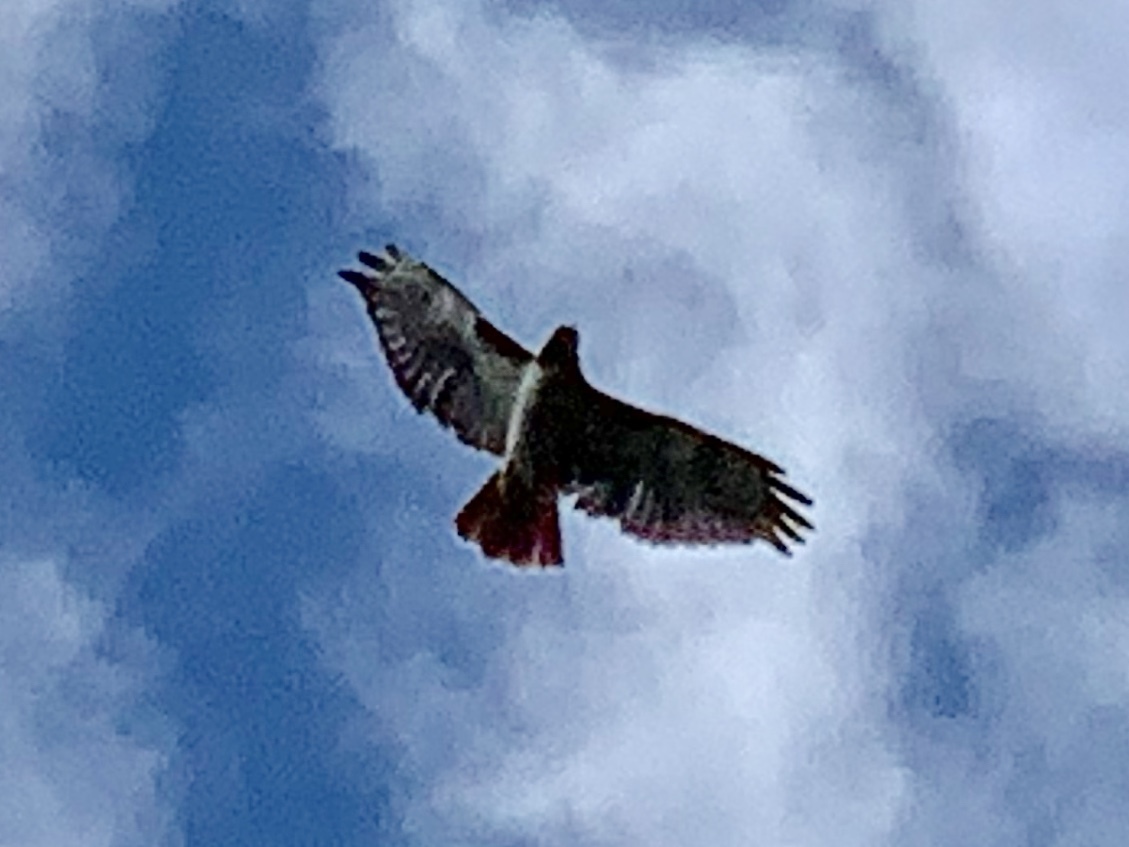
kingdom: Animalia
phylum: Chordata
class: Aves
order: Accipitriformes
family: Accipitridae
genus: Buteo
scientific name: Buteo jamaicensis
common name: Red-tailed hawk
